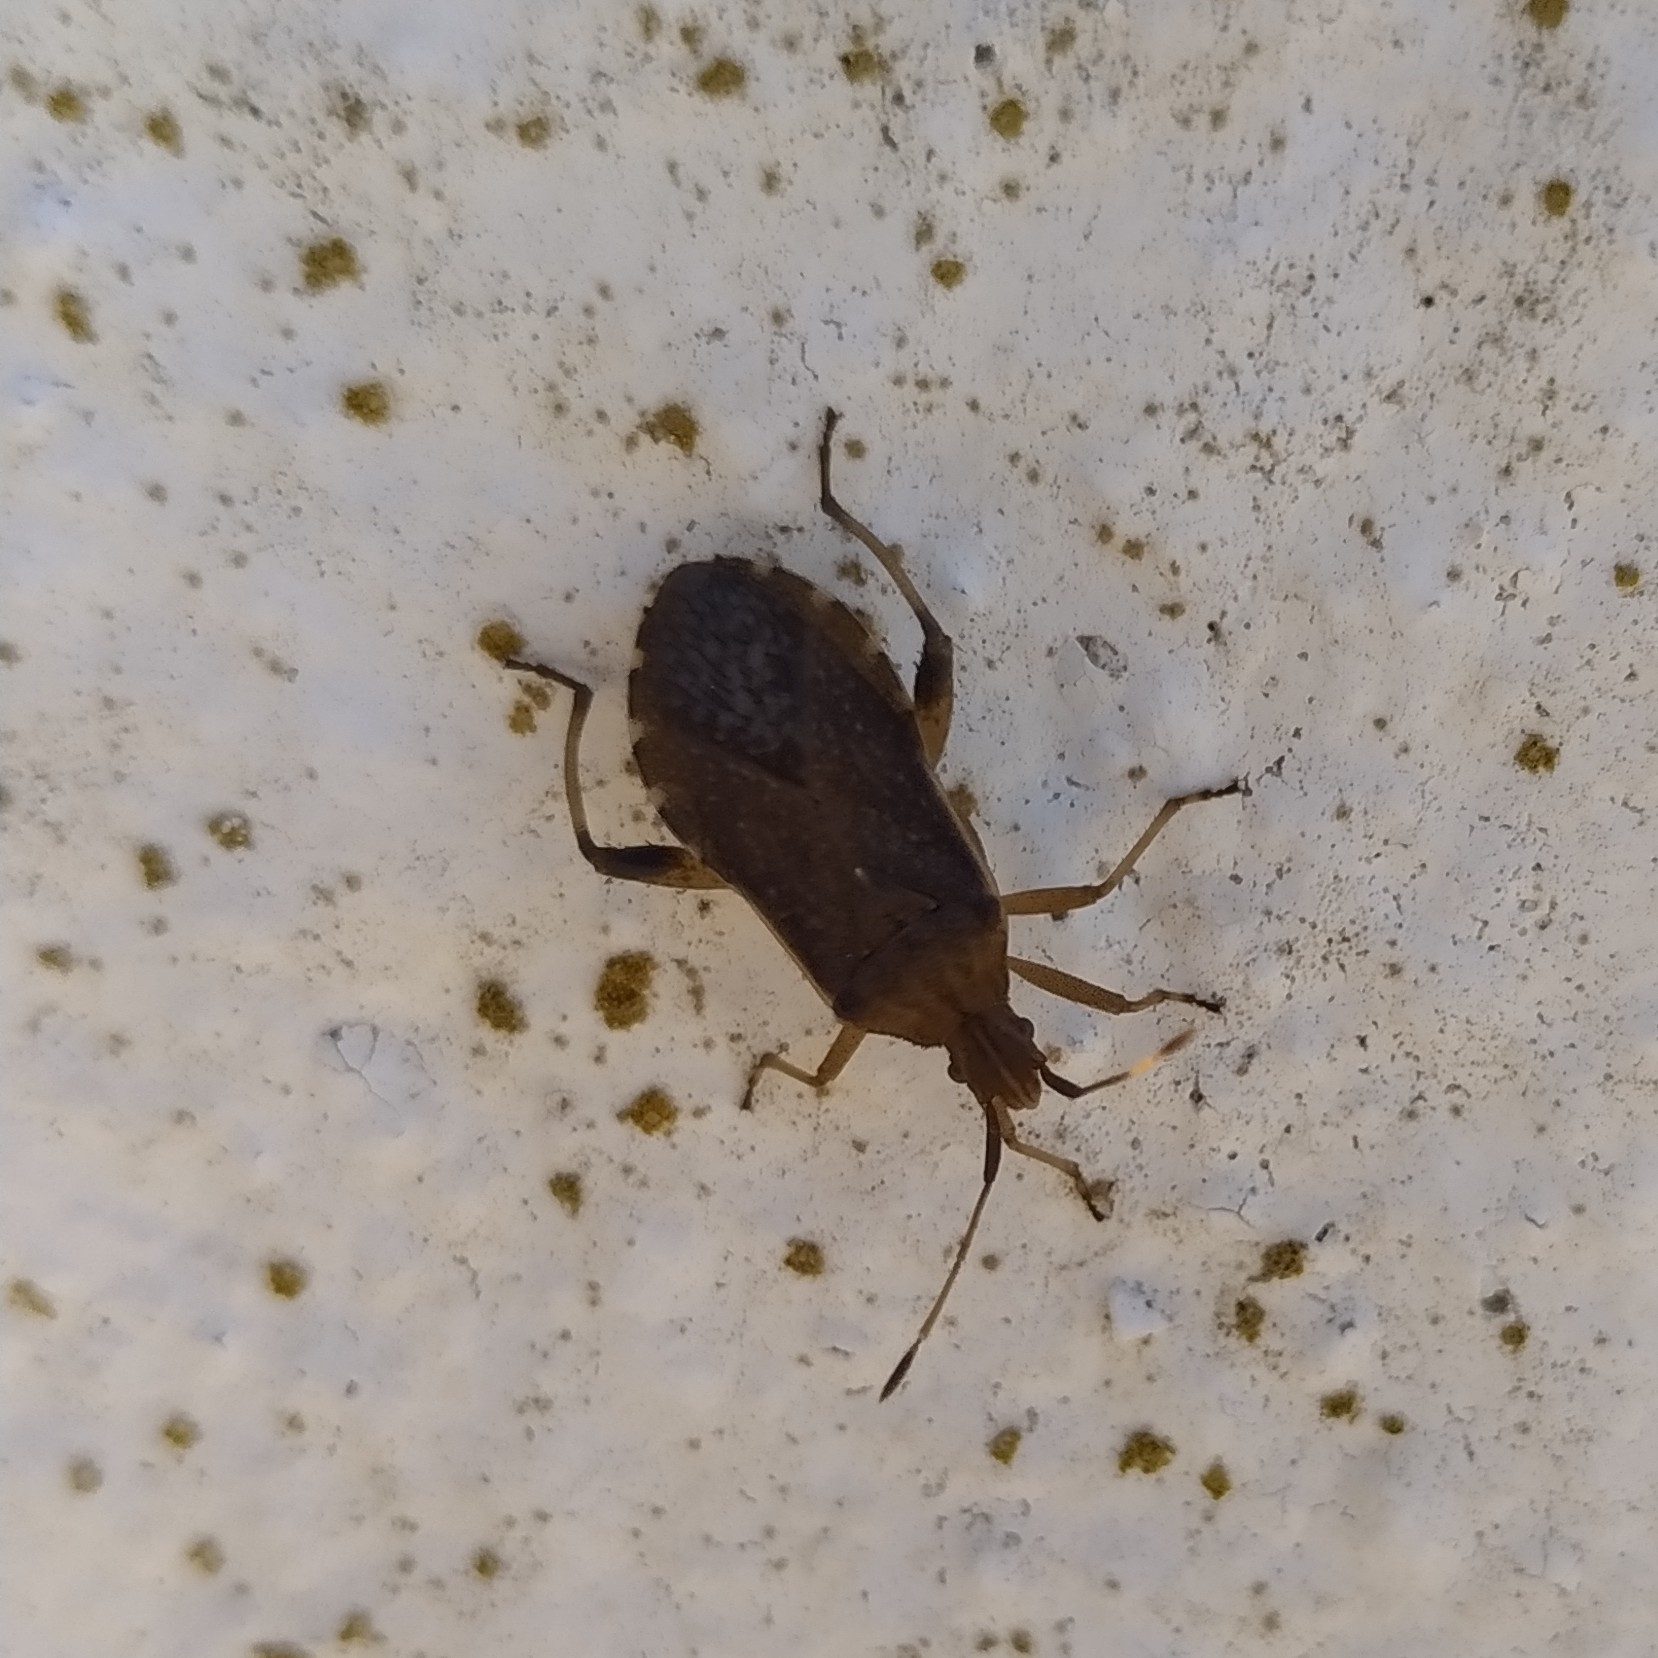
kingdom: Animalia
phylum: Arthropoda
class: Insecta
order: Hemiptera
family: Coreidae
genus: Ceraleptus
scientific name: Ceraleptus obtusus
